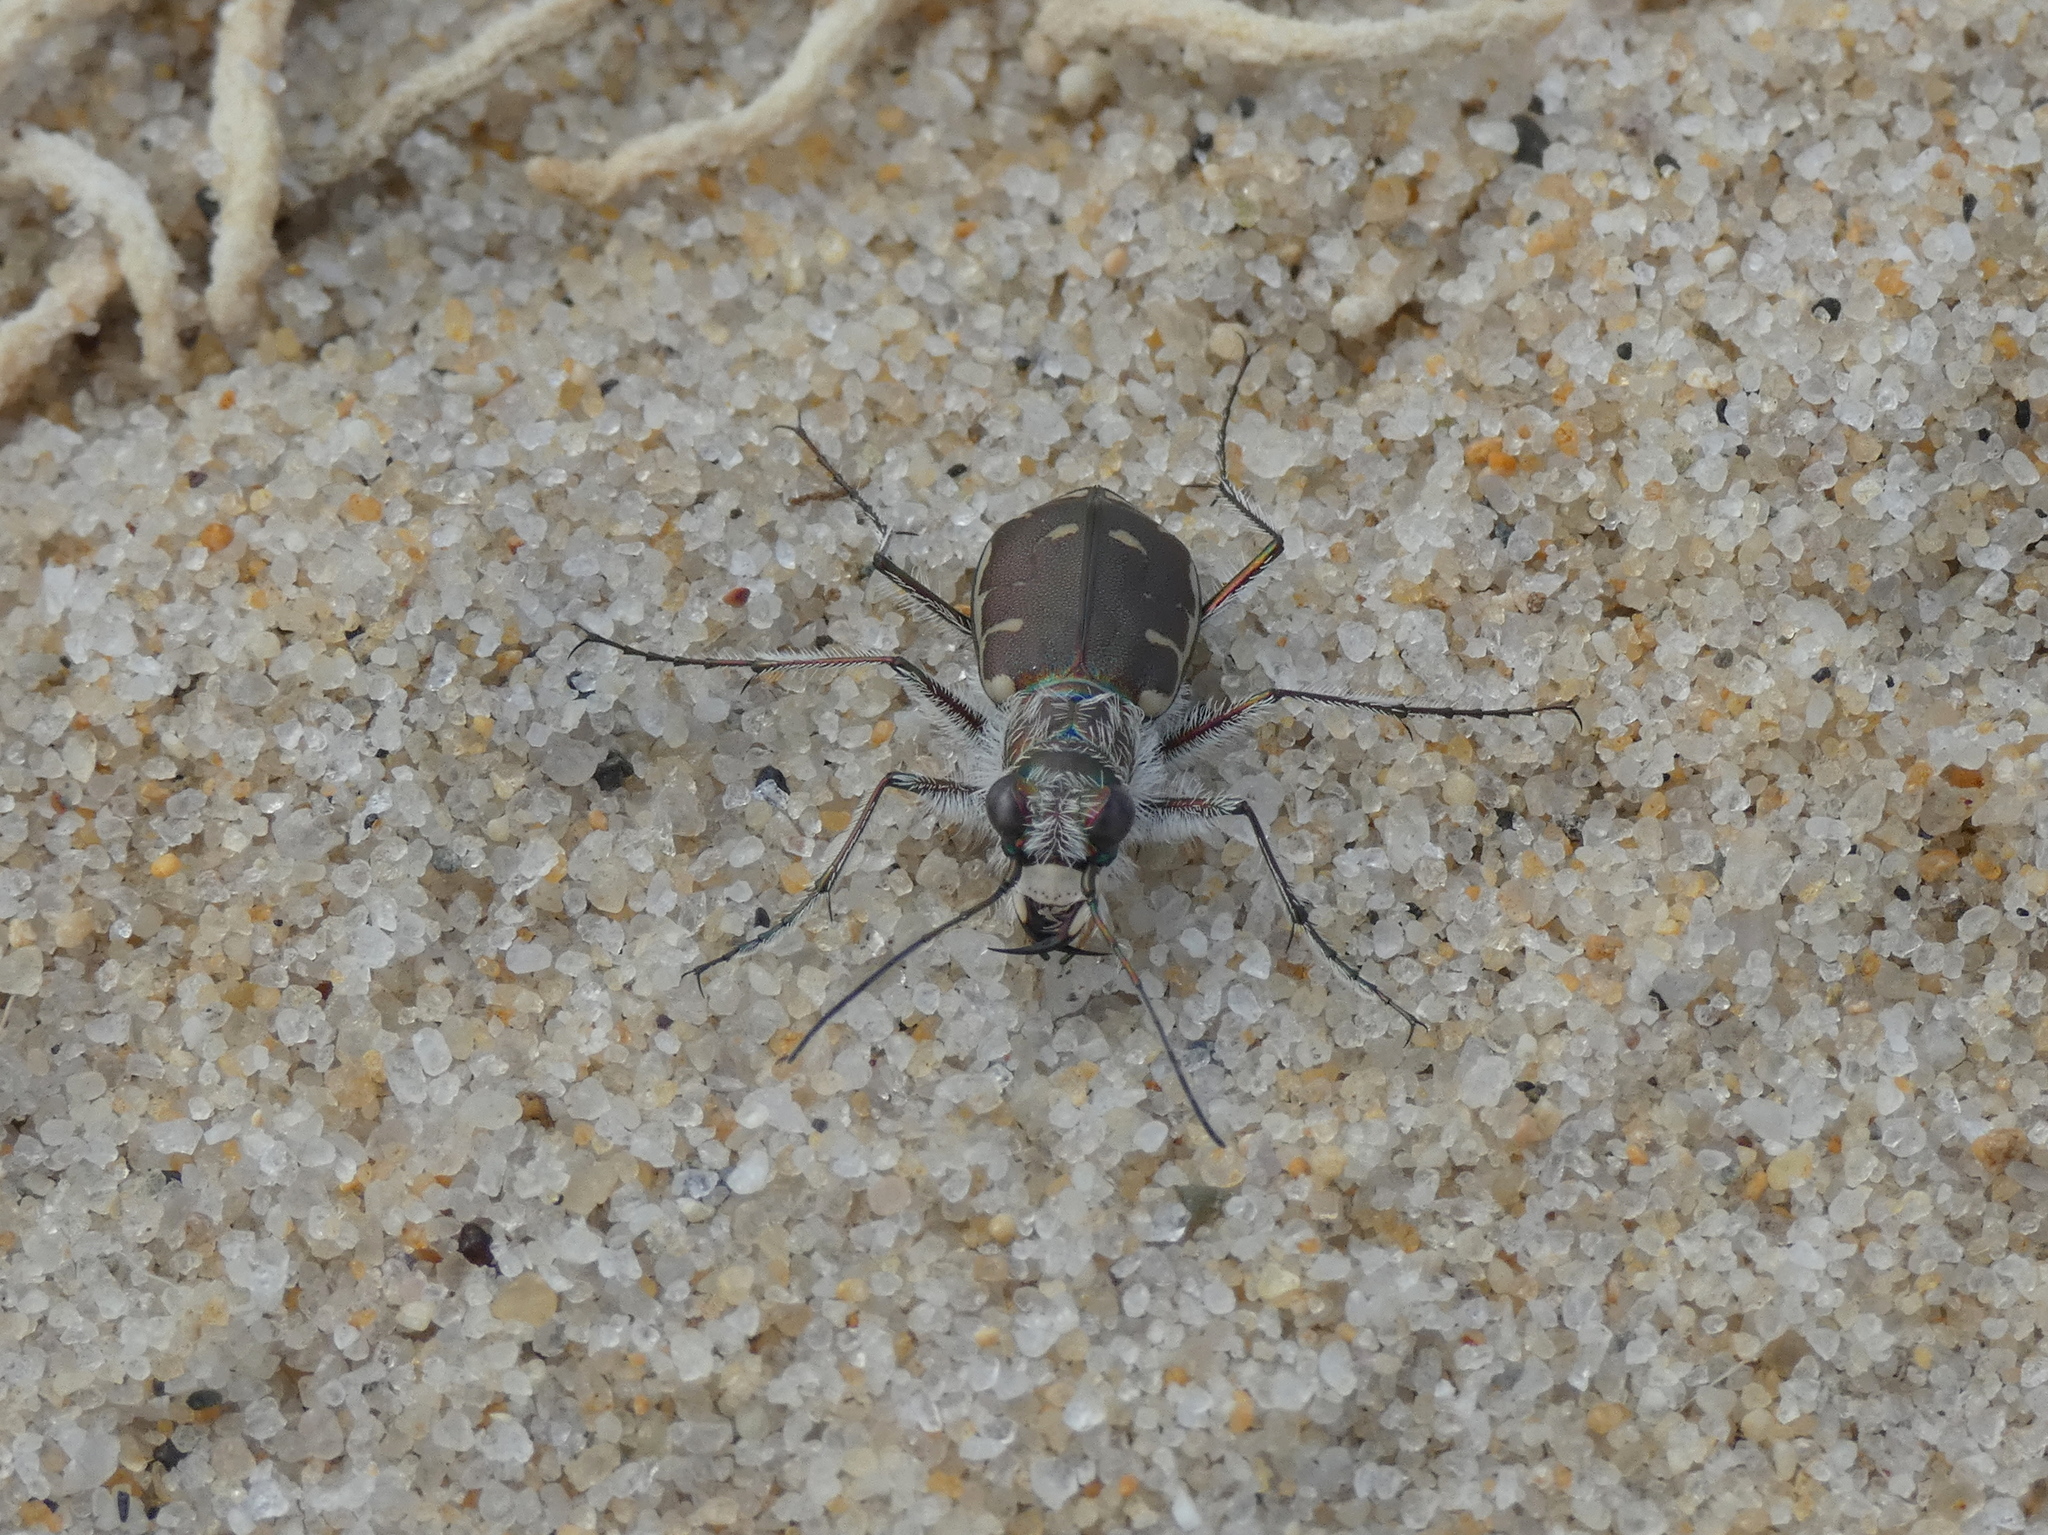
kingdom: Animalia
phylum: Arthropoda
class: Insecta
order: Coleoptera
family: Carabidae
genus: Cicindela
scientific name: Cicindela hirticollis
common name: Hairy-necked tiger beetle
